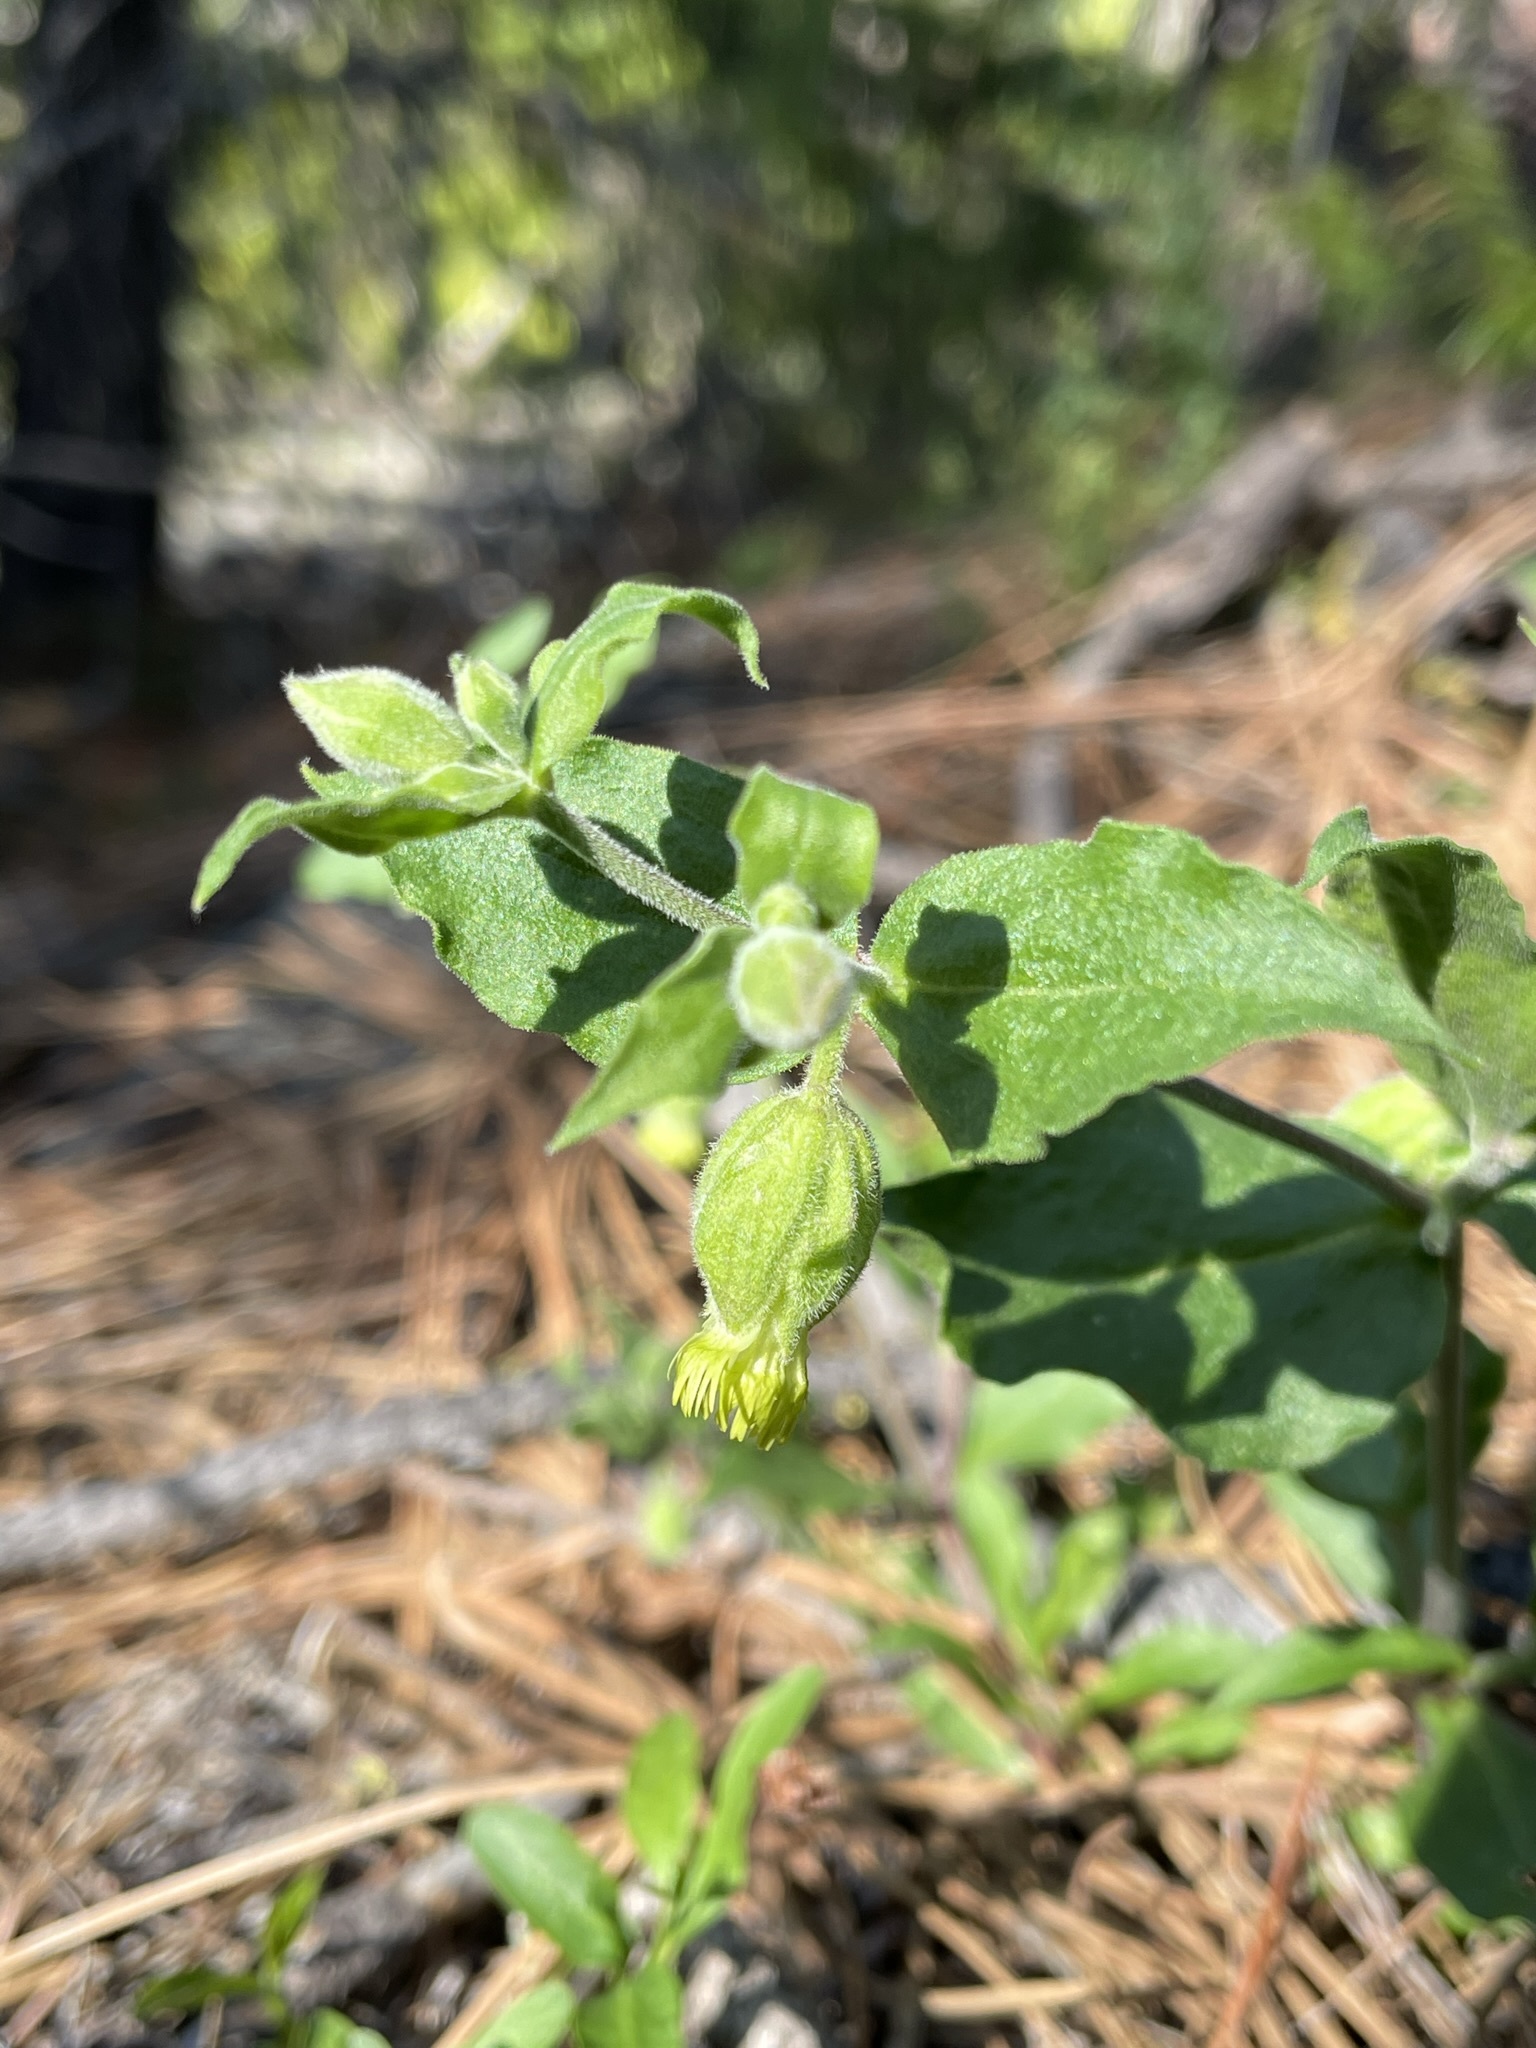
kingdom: Plantae
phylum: Tracheophyta
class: Magnoliopsida
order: Caryophyllales
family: Caryophyllaceae
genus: Silene
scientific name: Silene greenei
